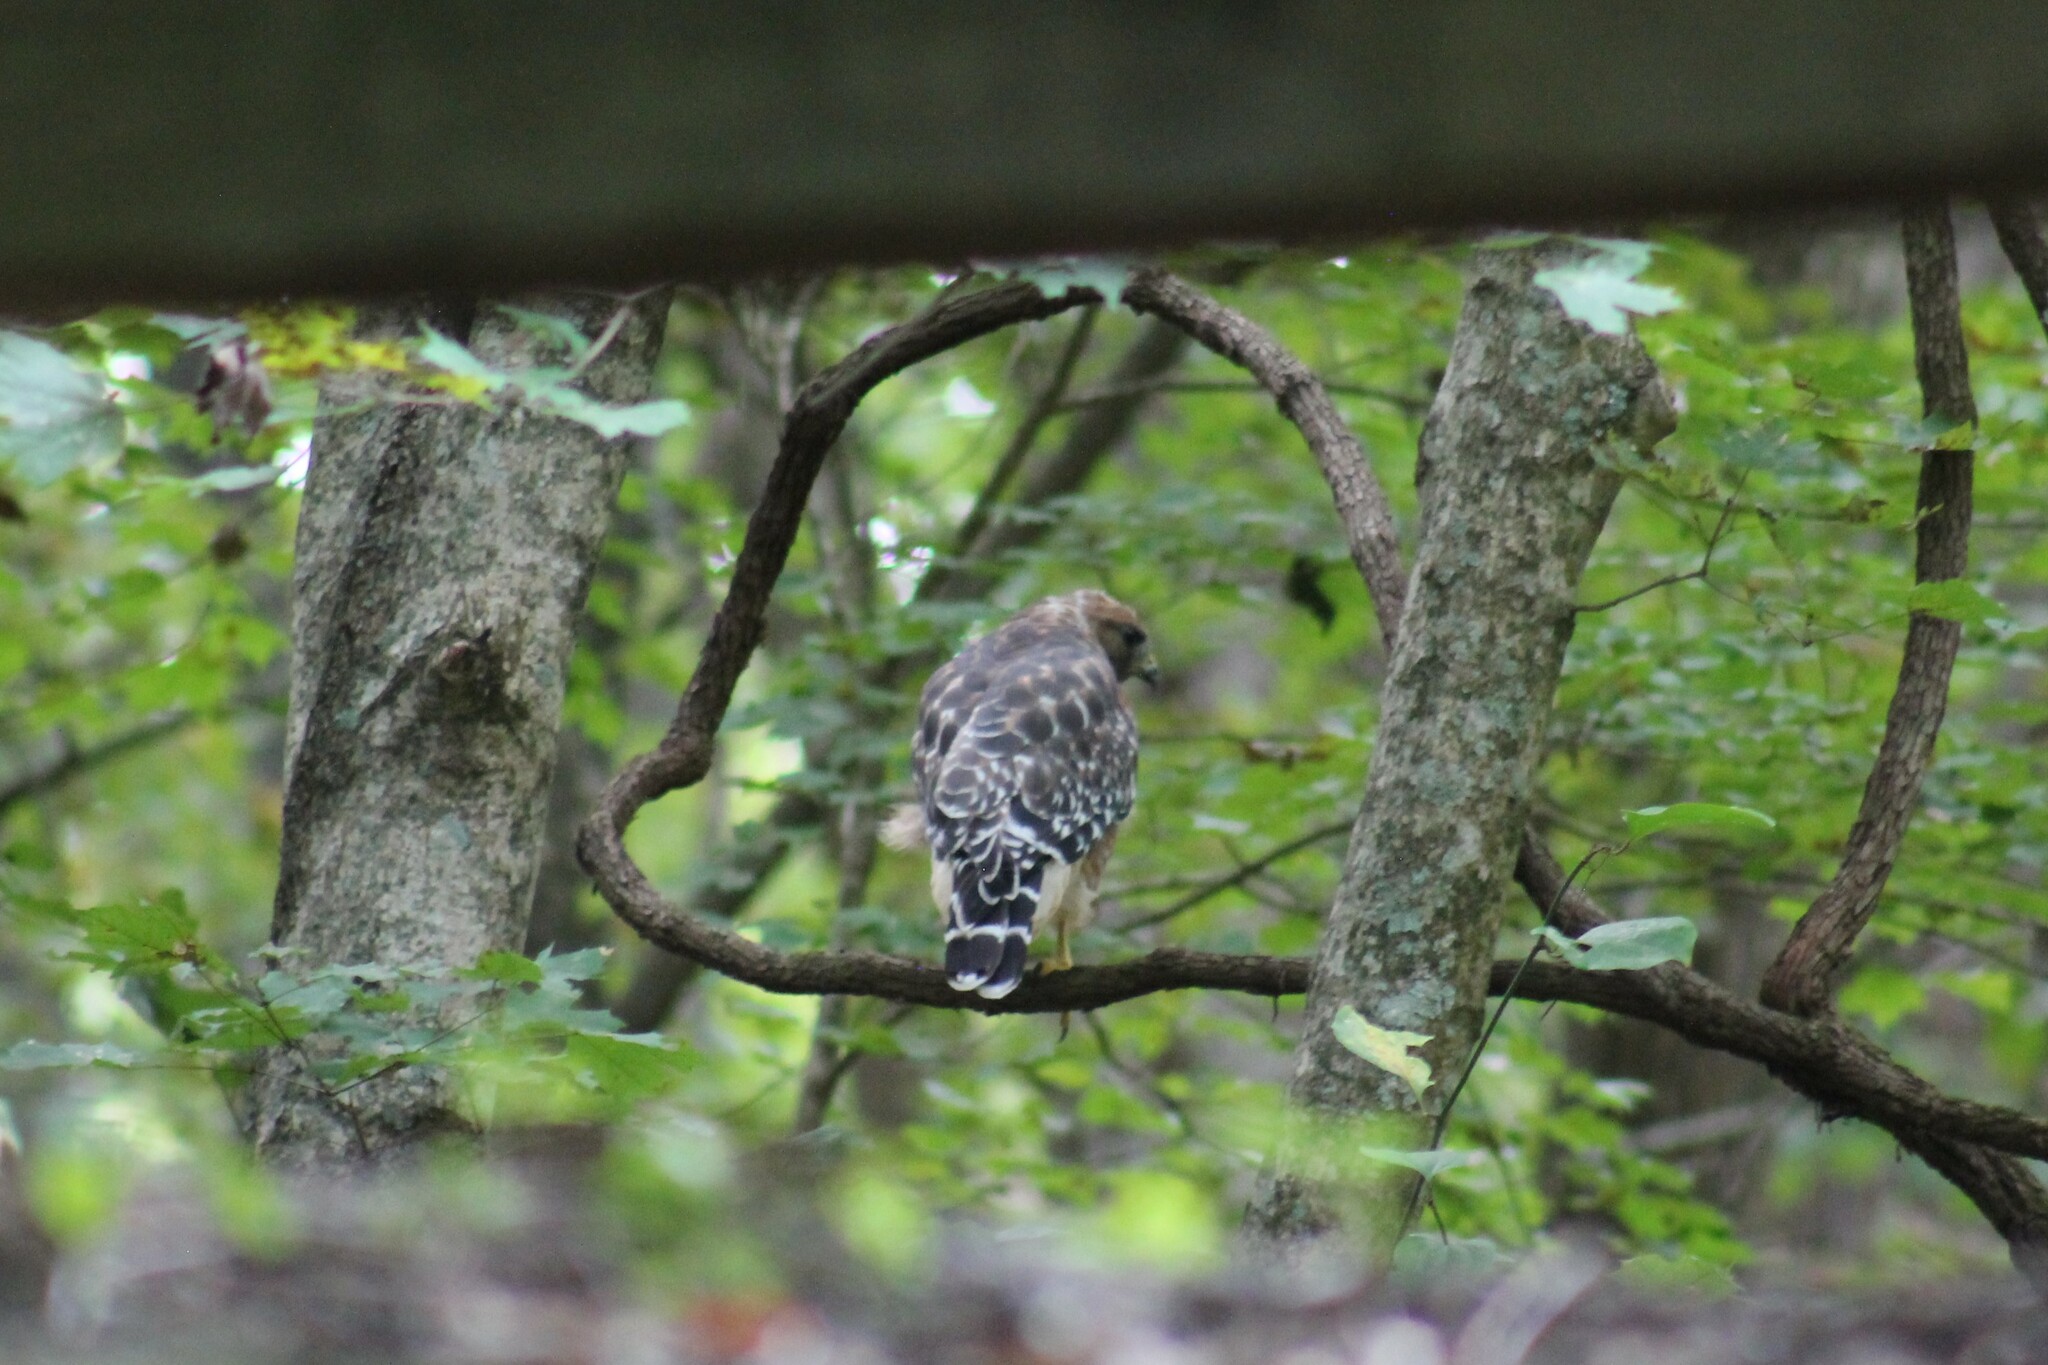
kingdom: Animalia
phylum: Chordata
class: Aves
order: Accipitriformes
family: Accipitridae
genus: Buteo
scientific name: Buteo lineatus
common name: Red-shouldered hawk
